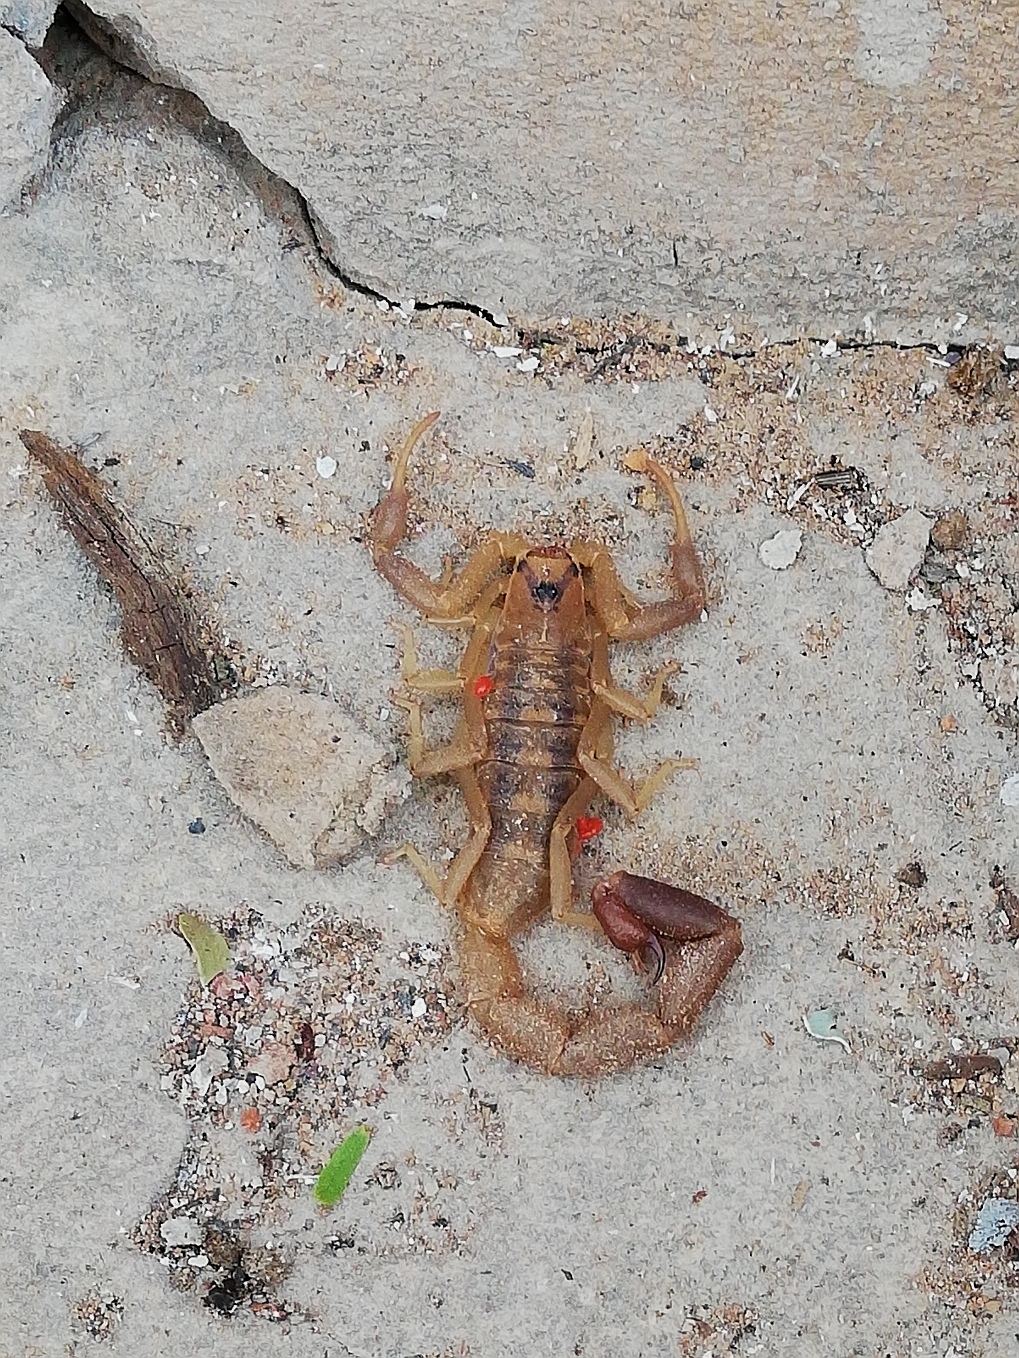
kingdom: Animalia
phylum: Arthropoda
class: Arachnida
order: Scorpiones
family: Buthidae
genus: Uroplectes
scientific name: Uroplectes triangulifer
